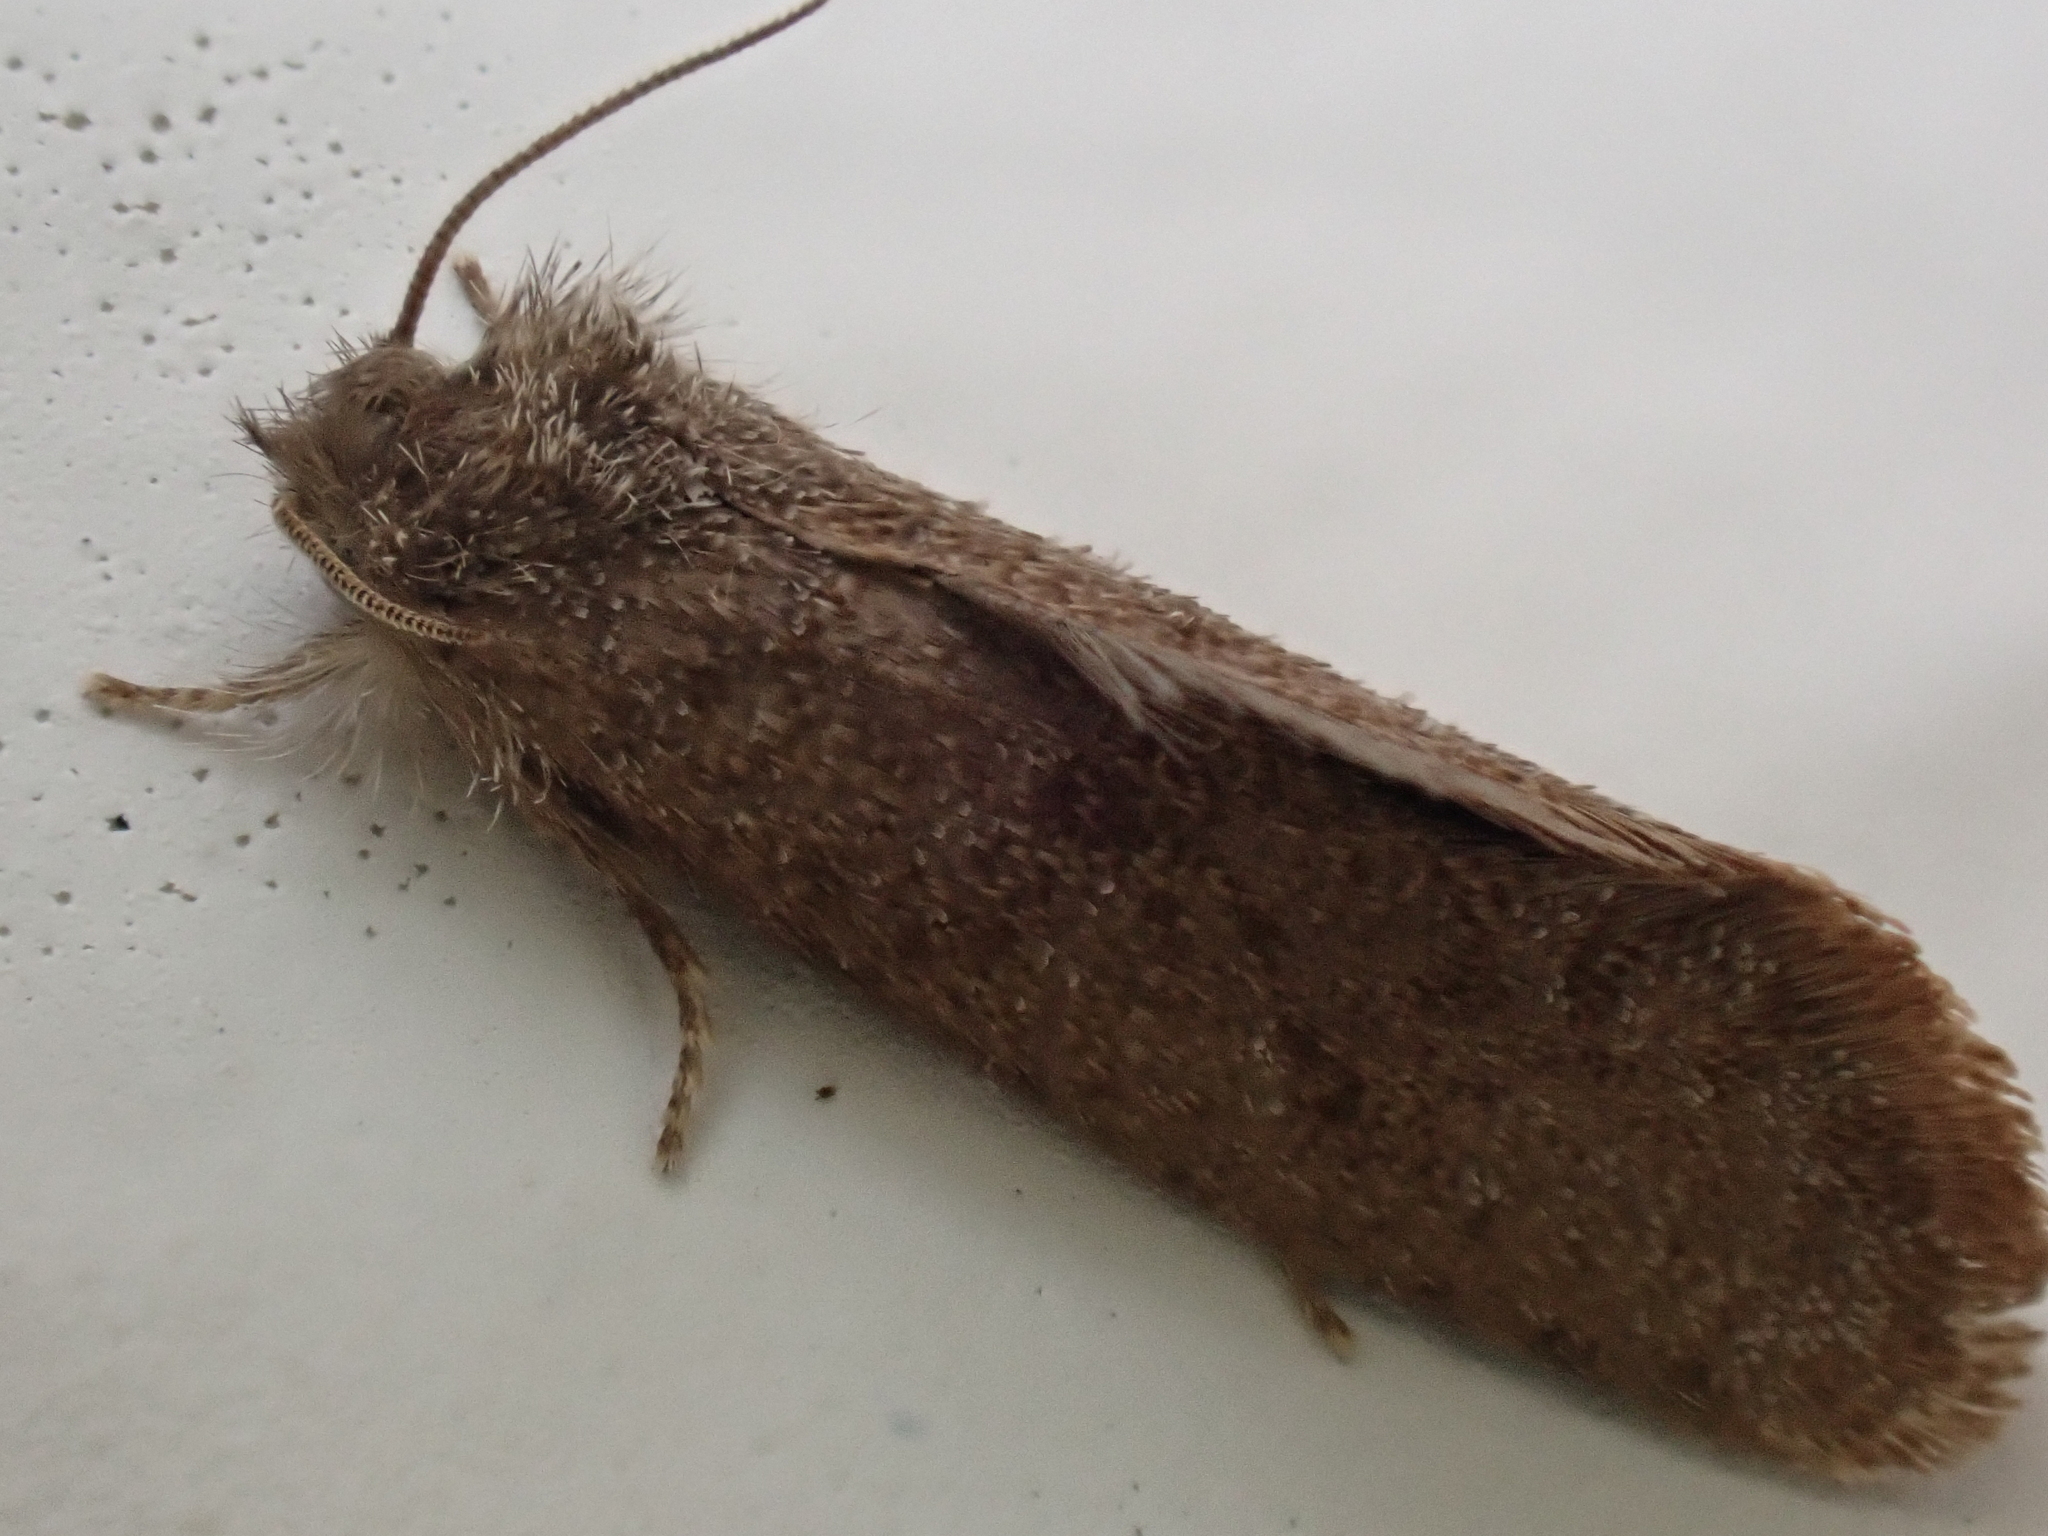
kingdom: Animalia
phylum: Arthropoda
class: Insecta
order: Lepidoptera
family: Tineidae
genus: Acrolophus
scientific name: Acrolophus heppneri
